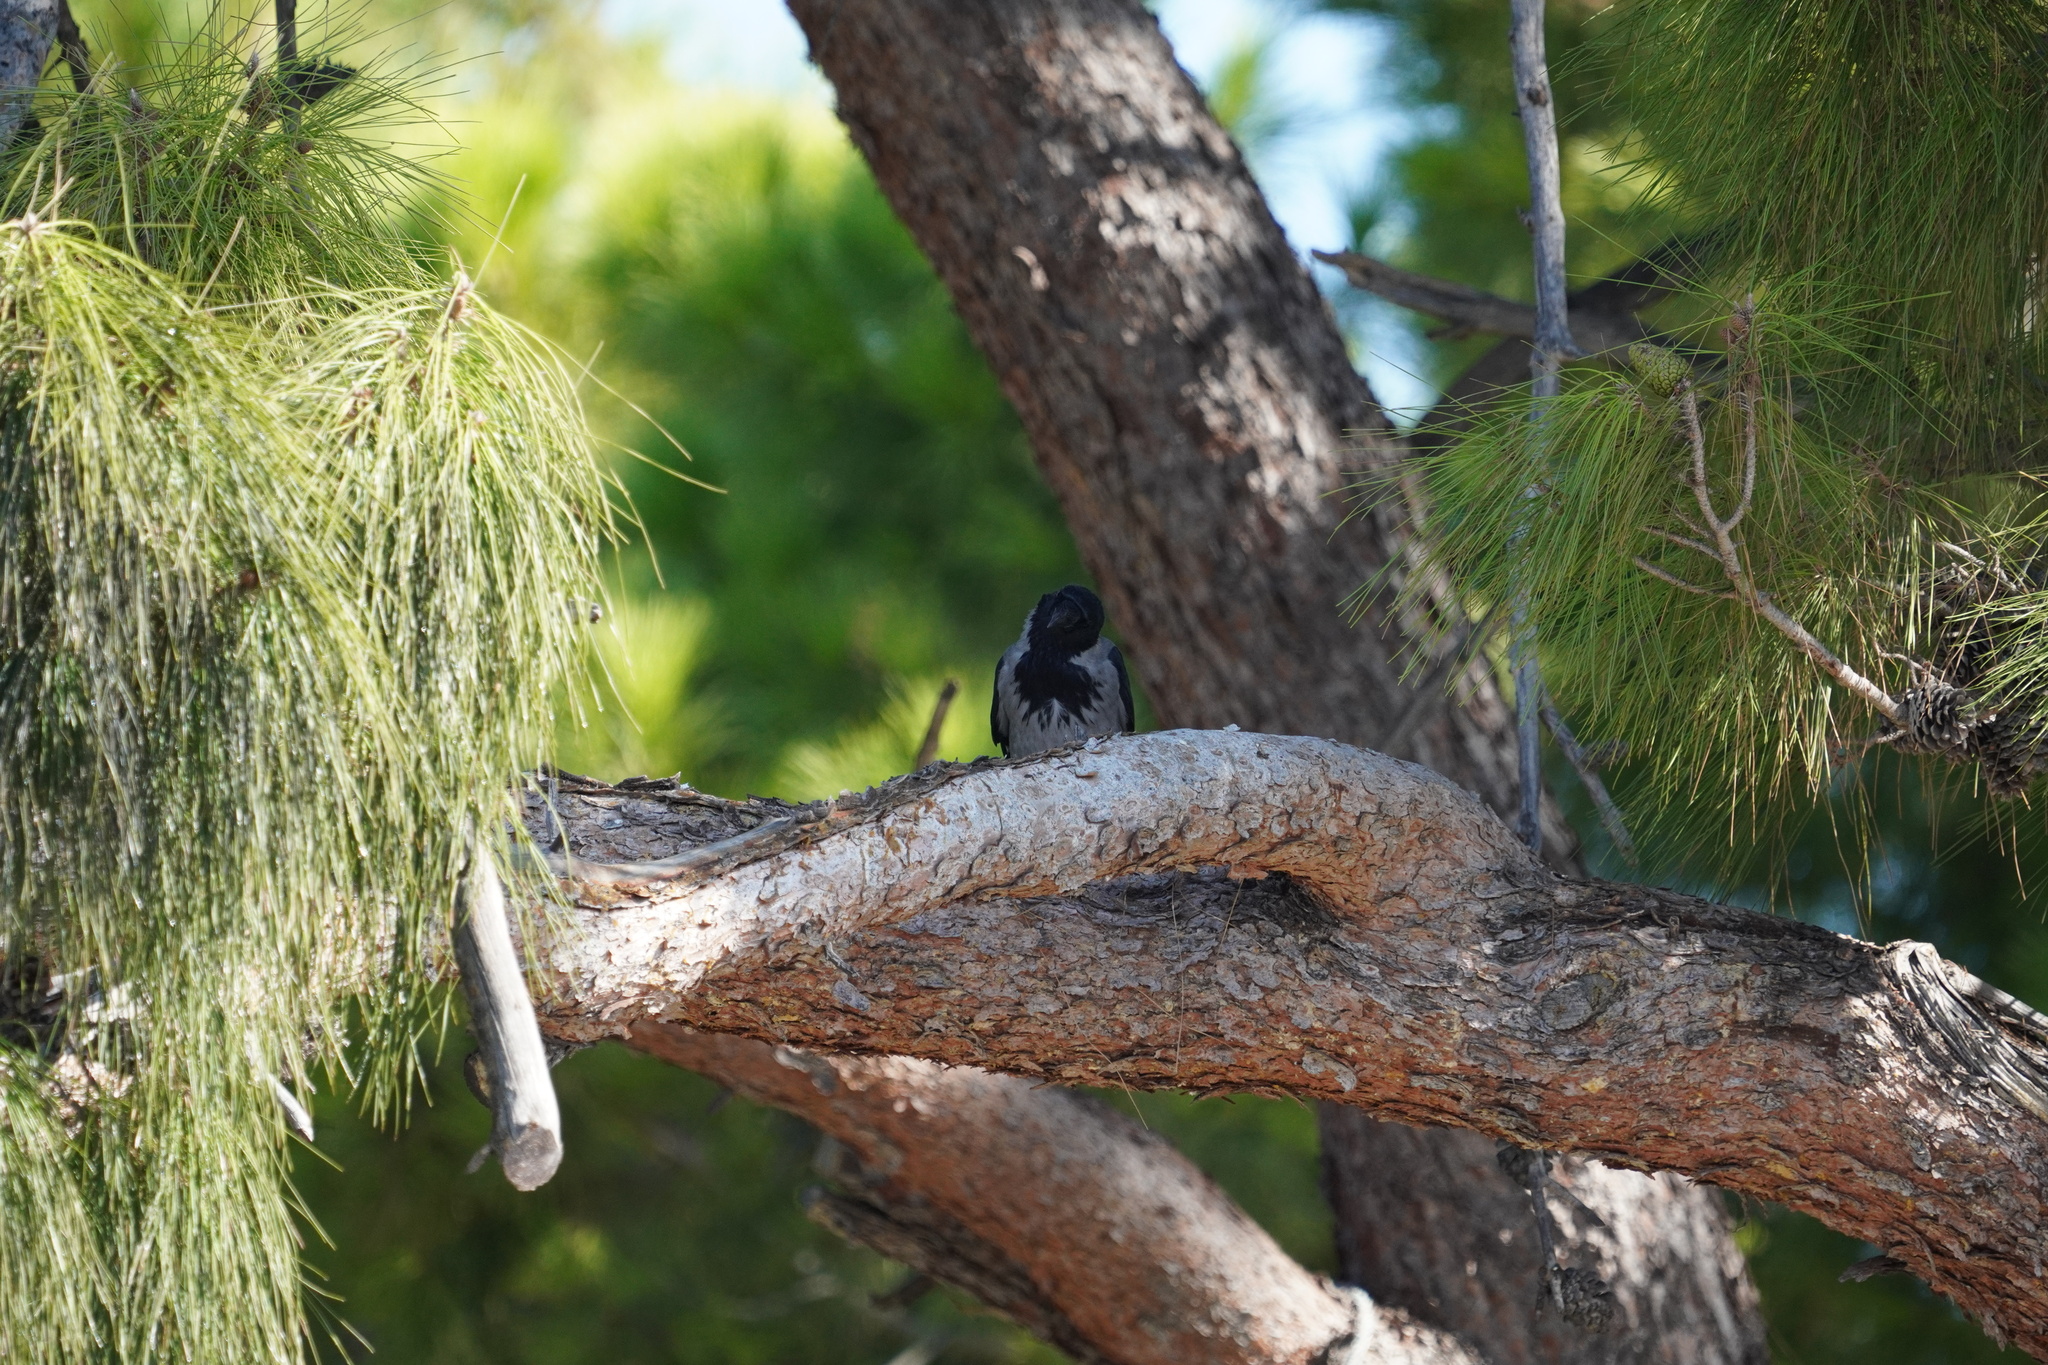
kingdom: Animalia
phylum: Chordata
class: Aves
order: Passeriformes
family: Corvidae
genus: Corvus
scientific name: Corvus cornix
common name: Hooded crow
